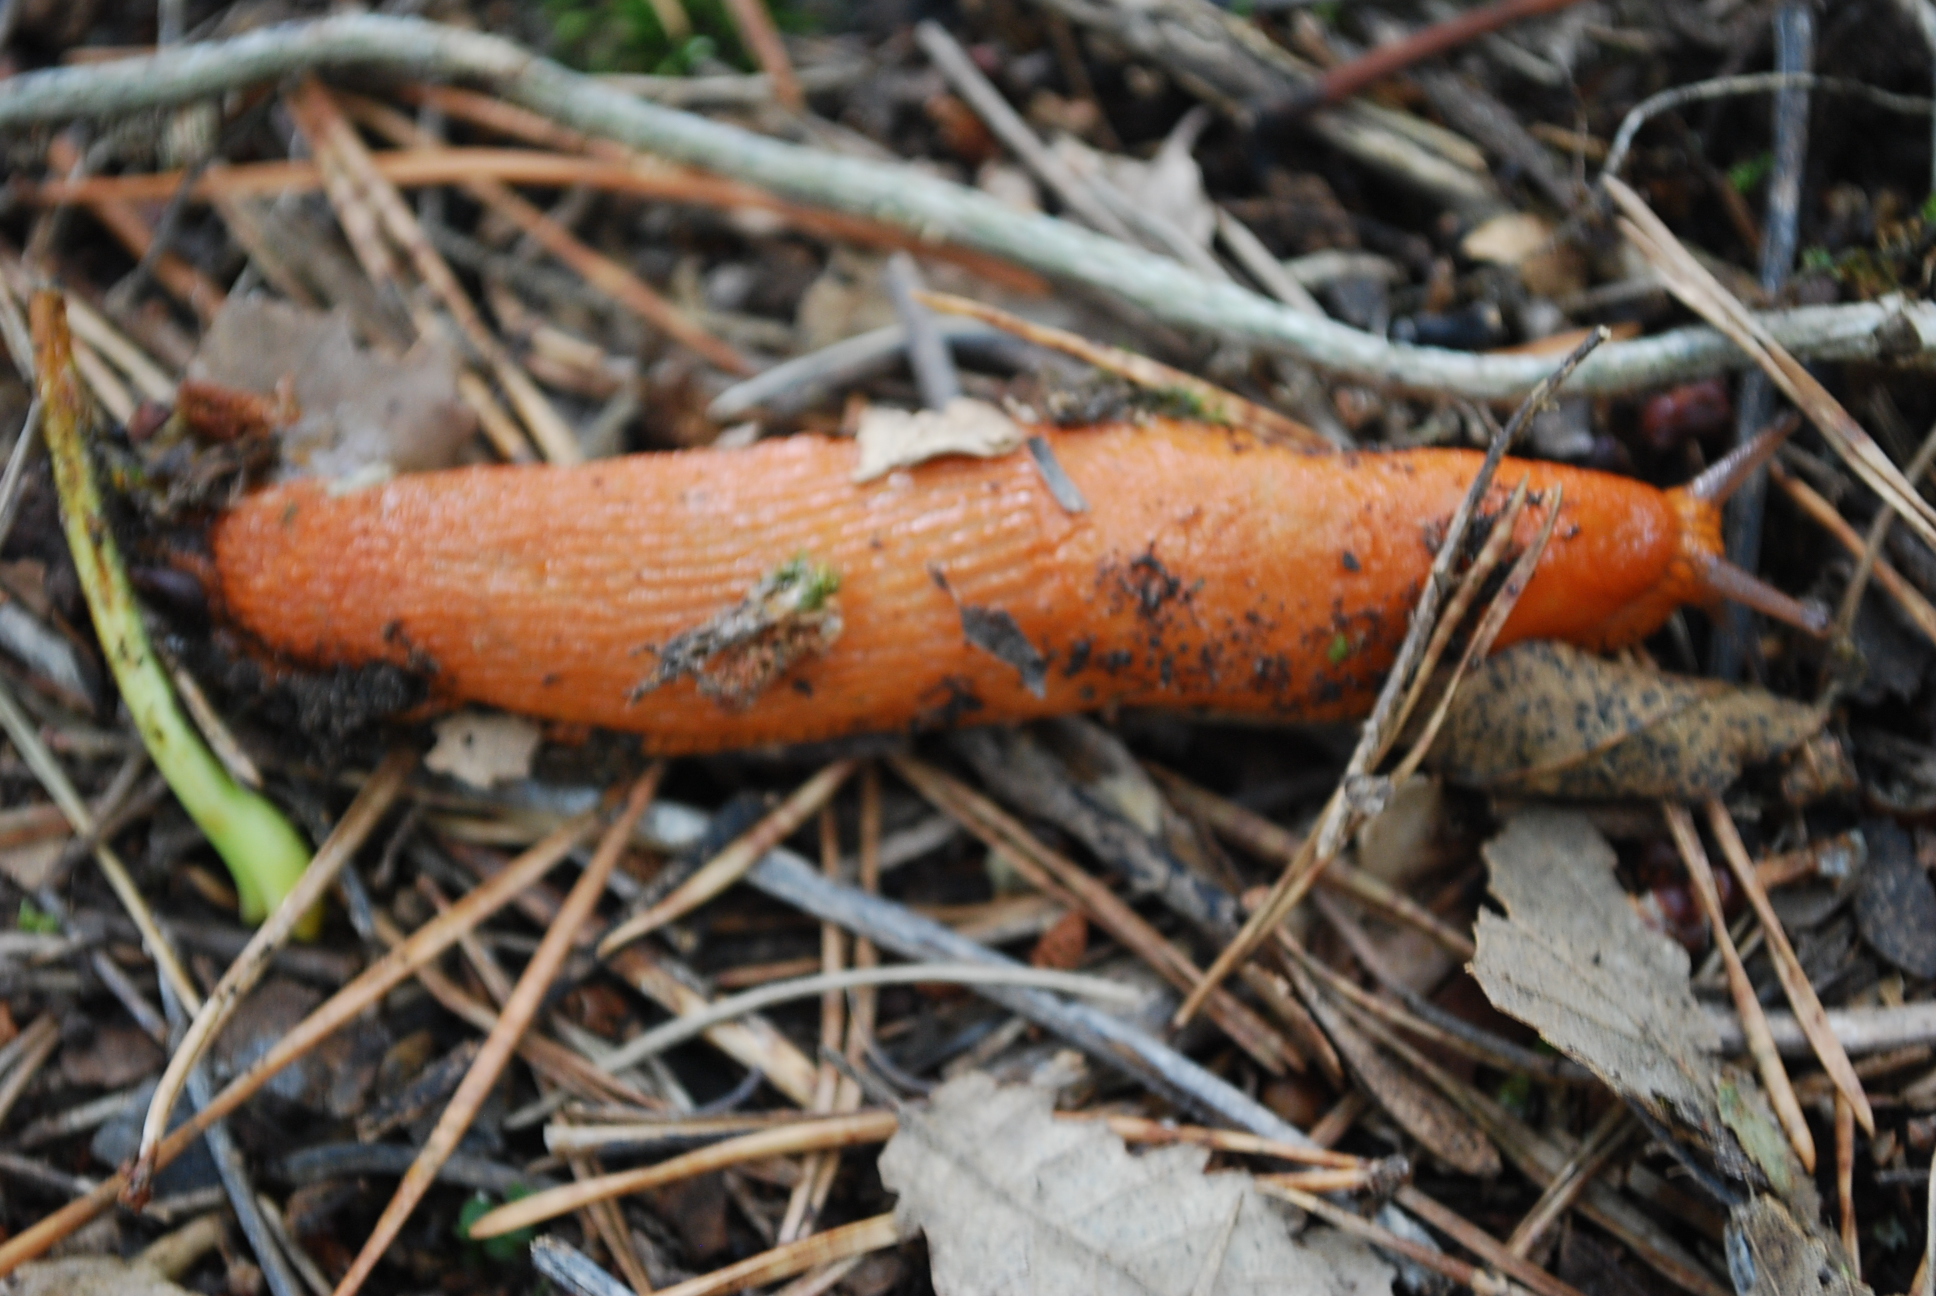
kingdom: Animalia
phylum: Mollusca
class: Gastropoda
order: Stylommatophora
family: Arionidae
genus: Arion
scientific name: Arion vulgaris
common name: Lusitanian slug
